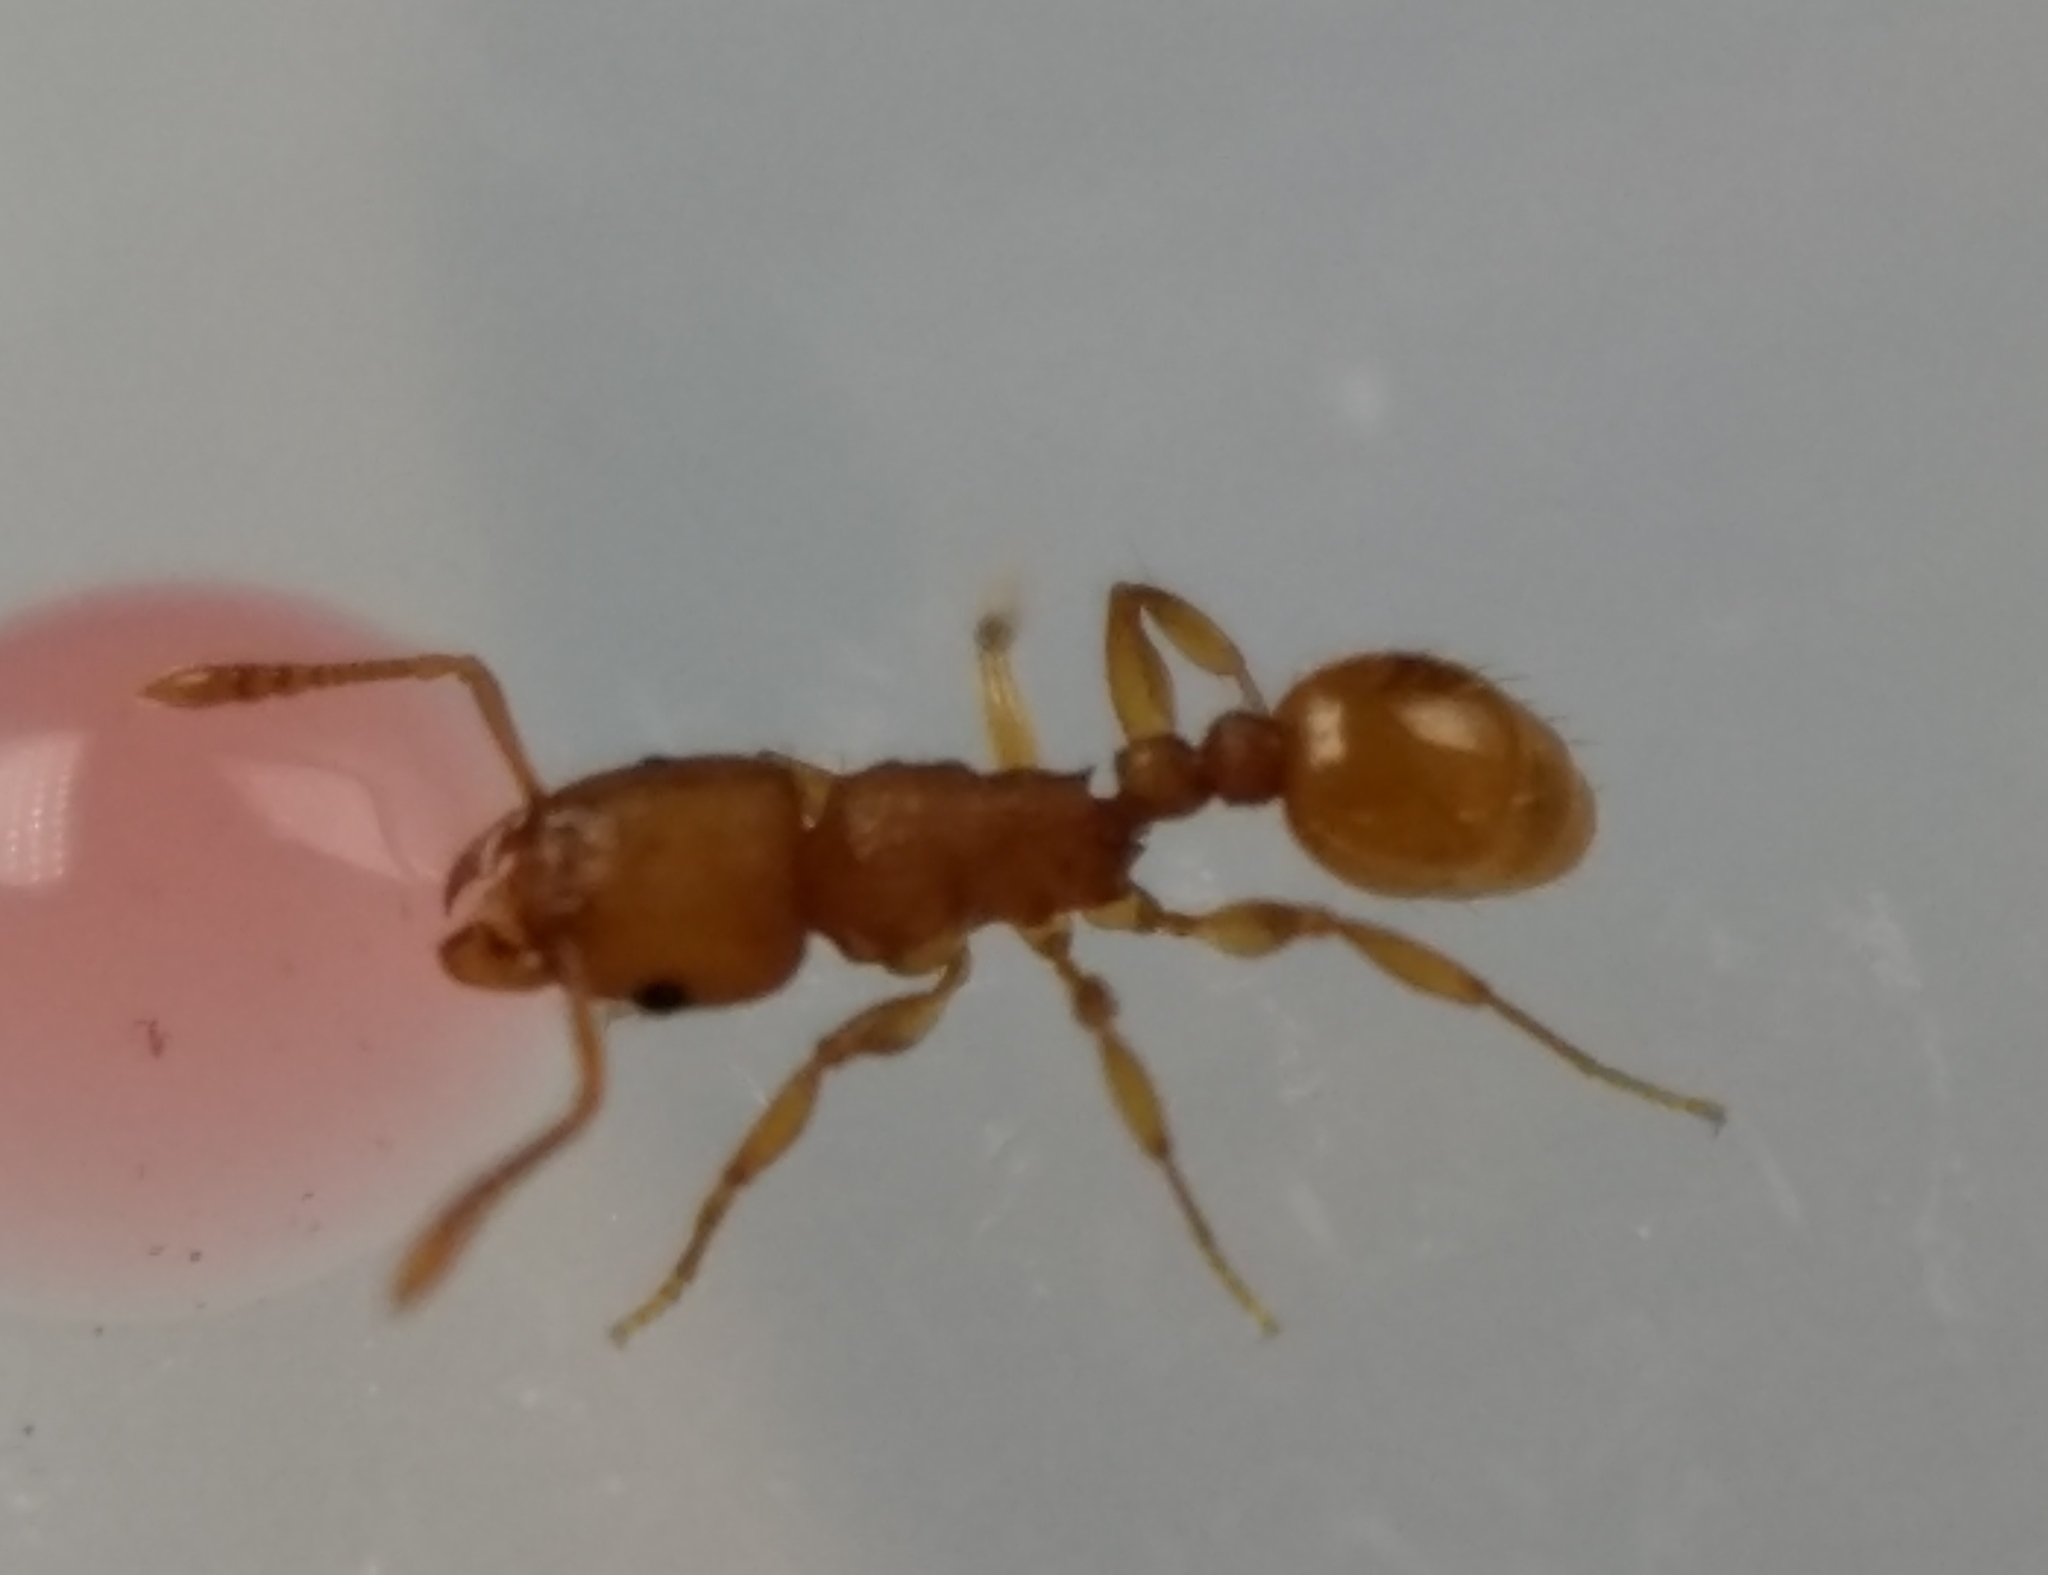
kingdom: Animalia
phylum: Arthropoda
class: Insecta
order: Hymenoptera
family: Formicidae
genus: Tetramorium
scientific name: Tetramorium simillimum
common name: Ant
